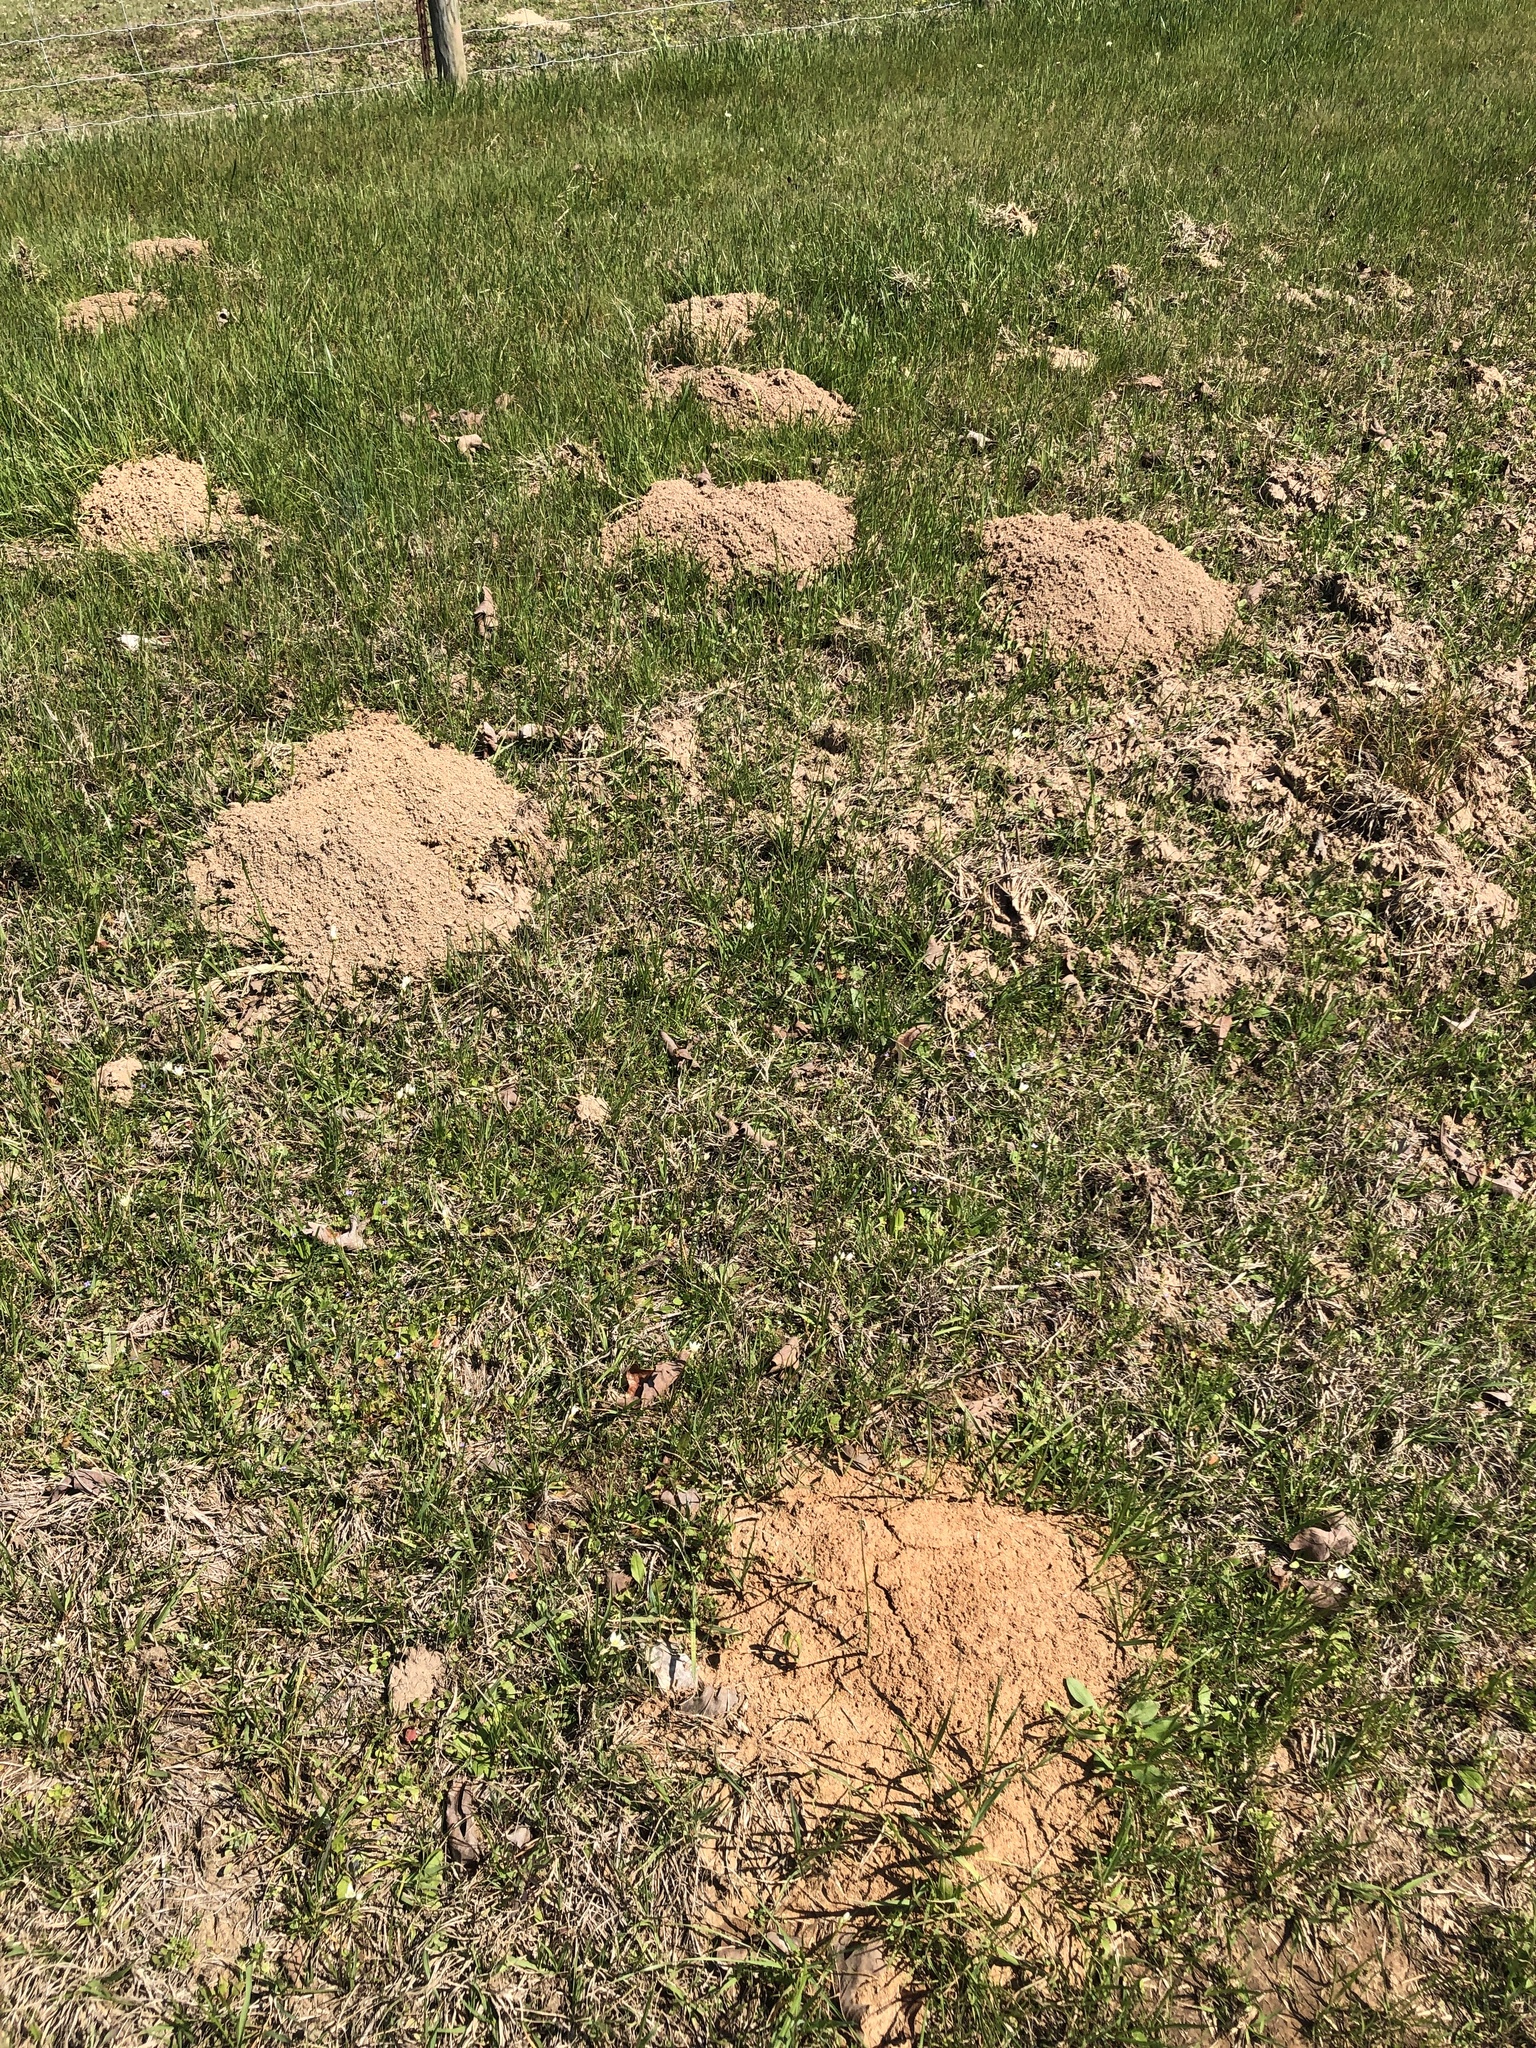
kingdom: Animalia
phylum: Chordata
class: Mammalia
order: Rodentia
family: Geomyidae
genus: Geomys
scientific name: Geomys breviceps
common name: Baird's pocket gopher
